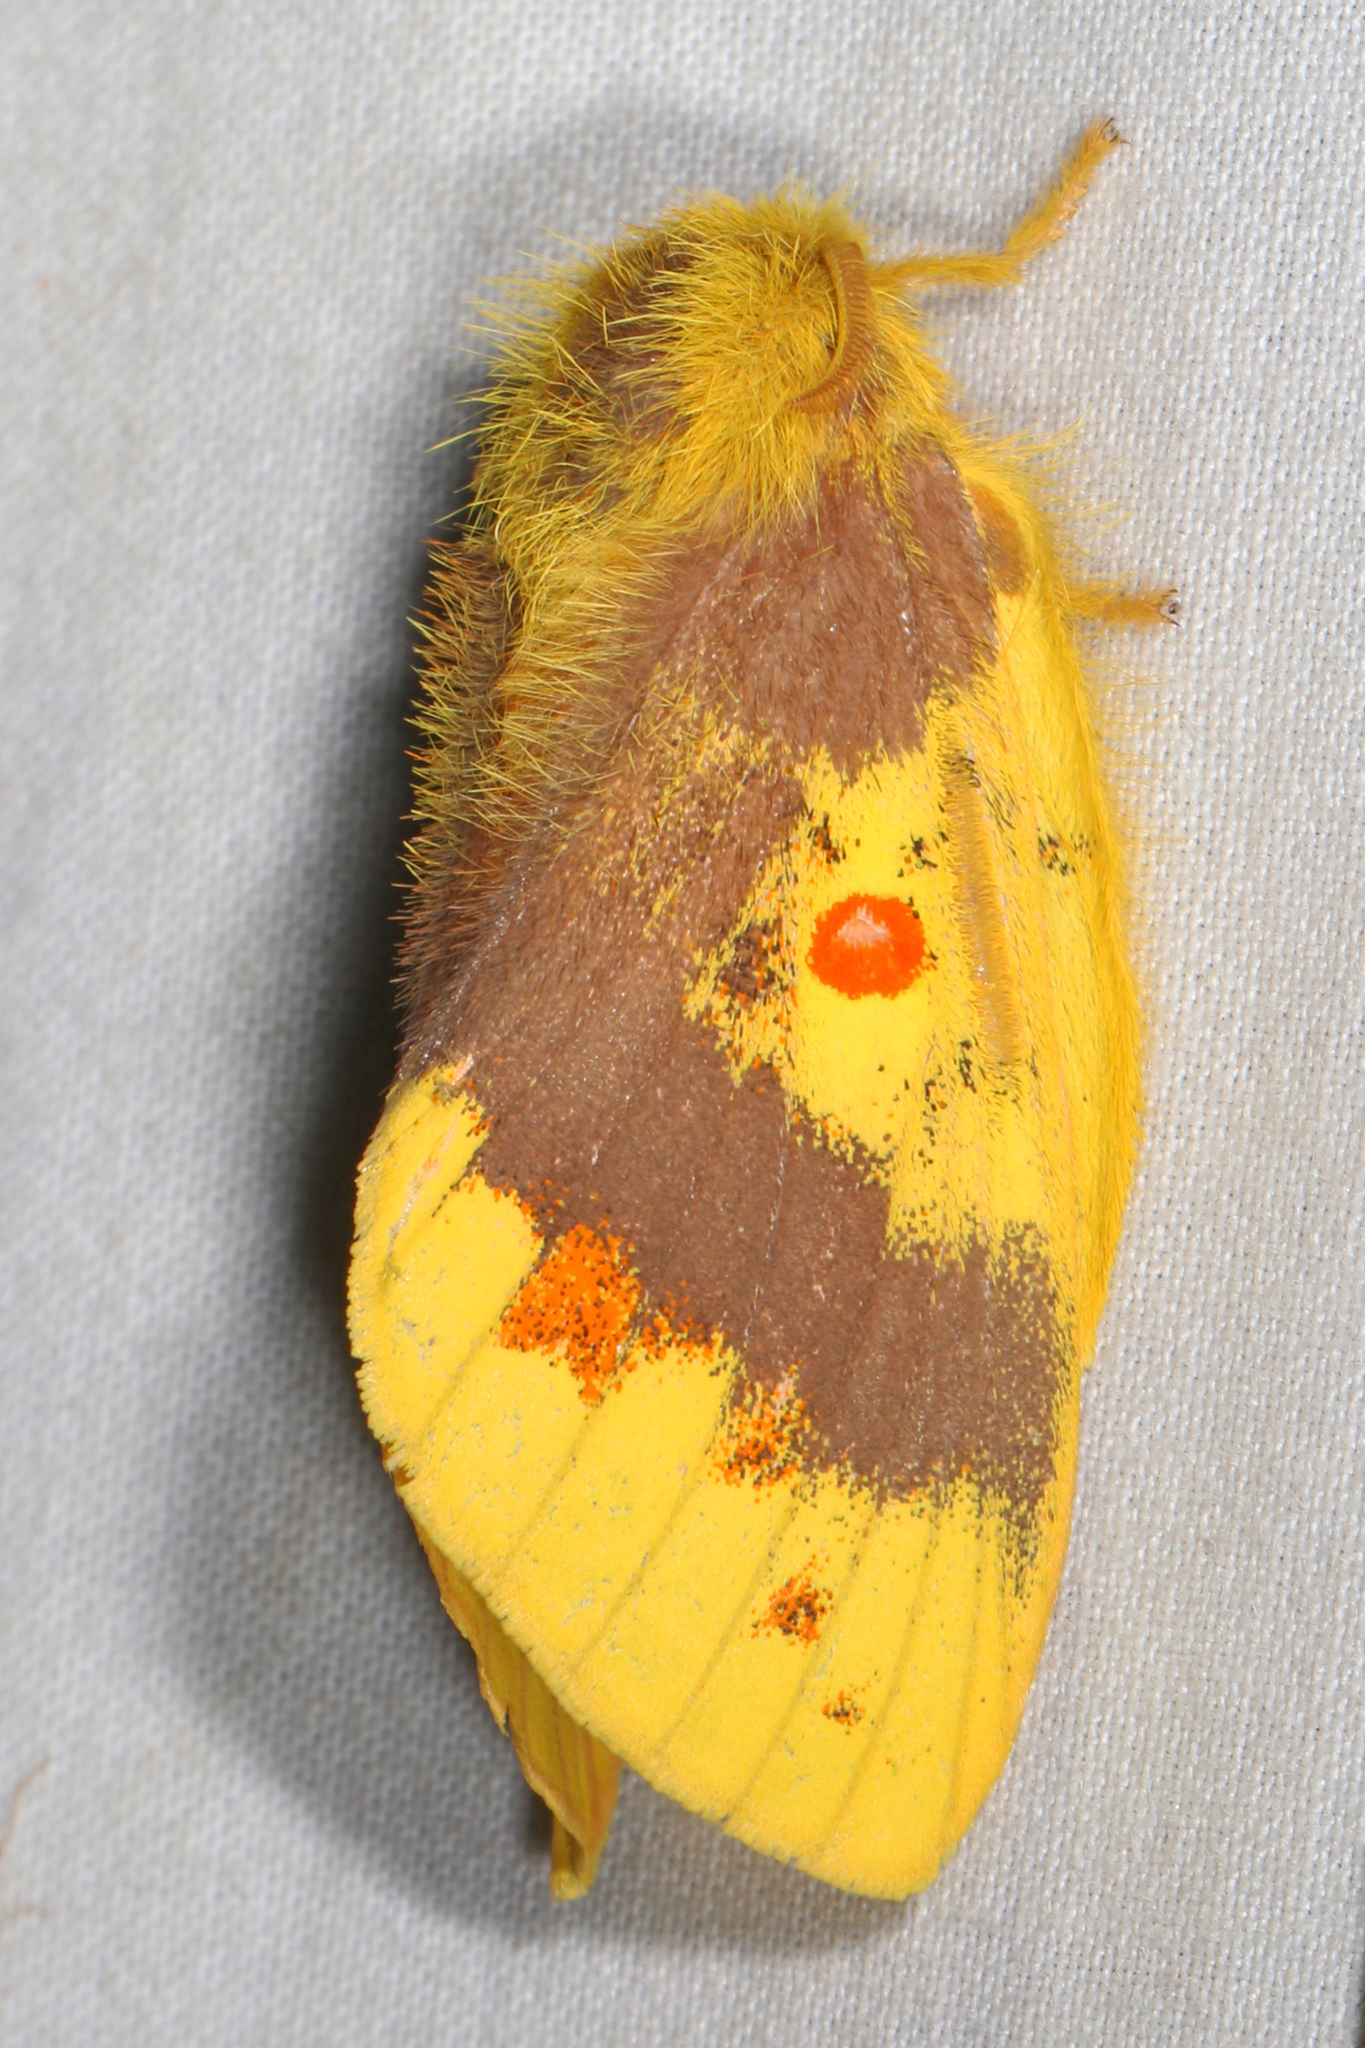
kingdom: Animalia
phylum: Arthropoda
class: Insecta
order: Lepidoptera
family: Lasiocampidae
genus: Chrysopsyche
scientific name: Chrysopsyche lutulenta
